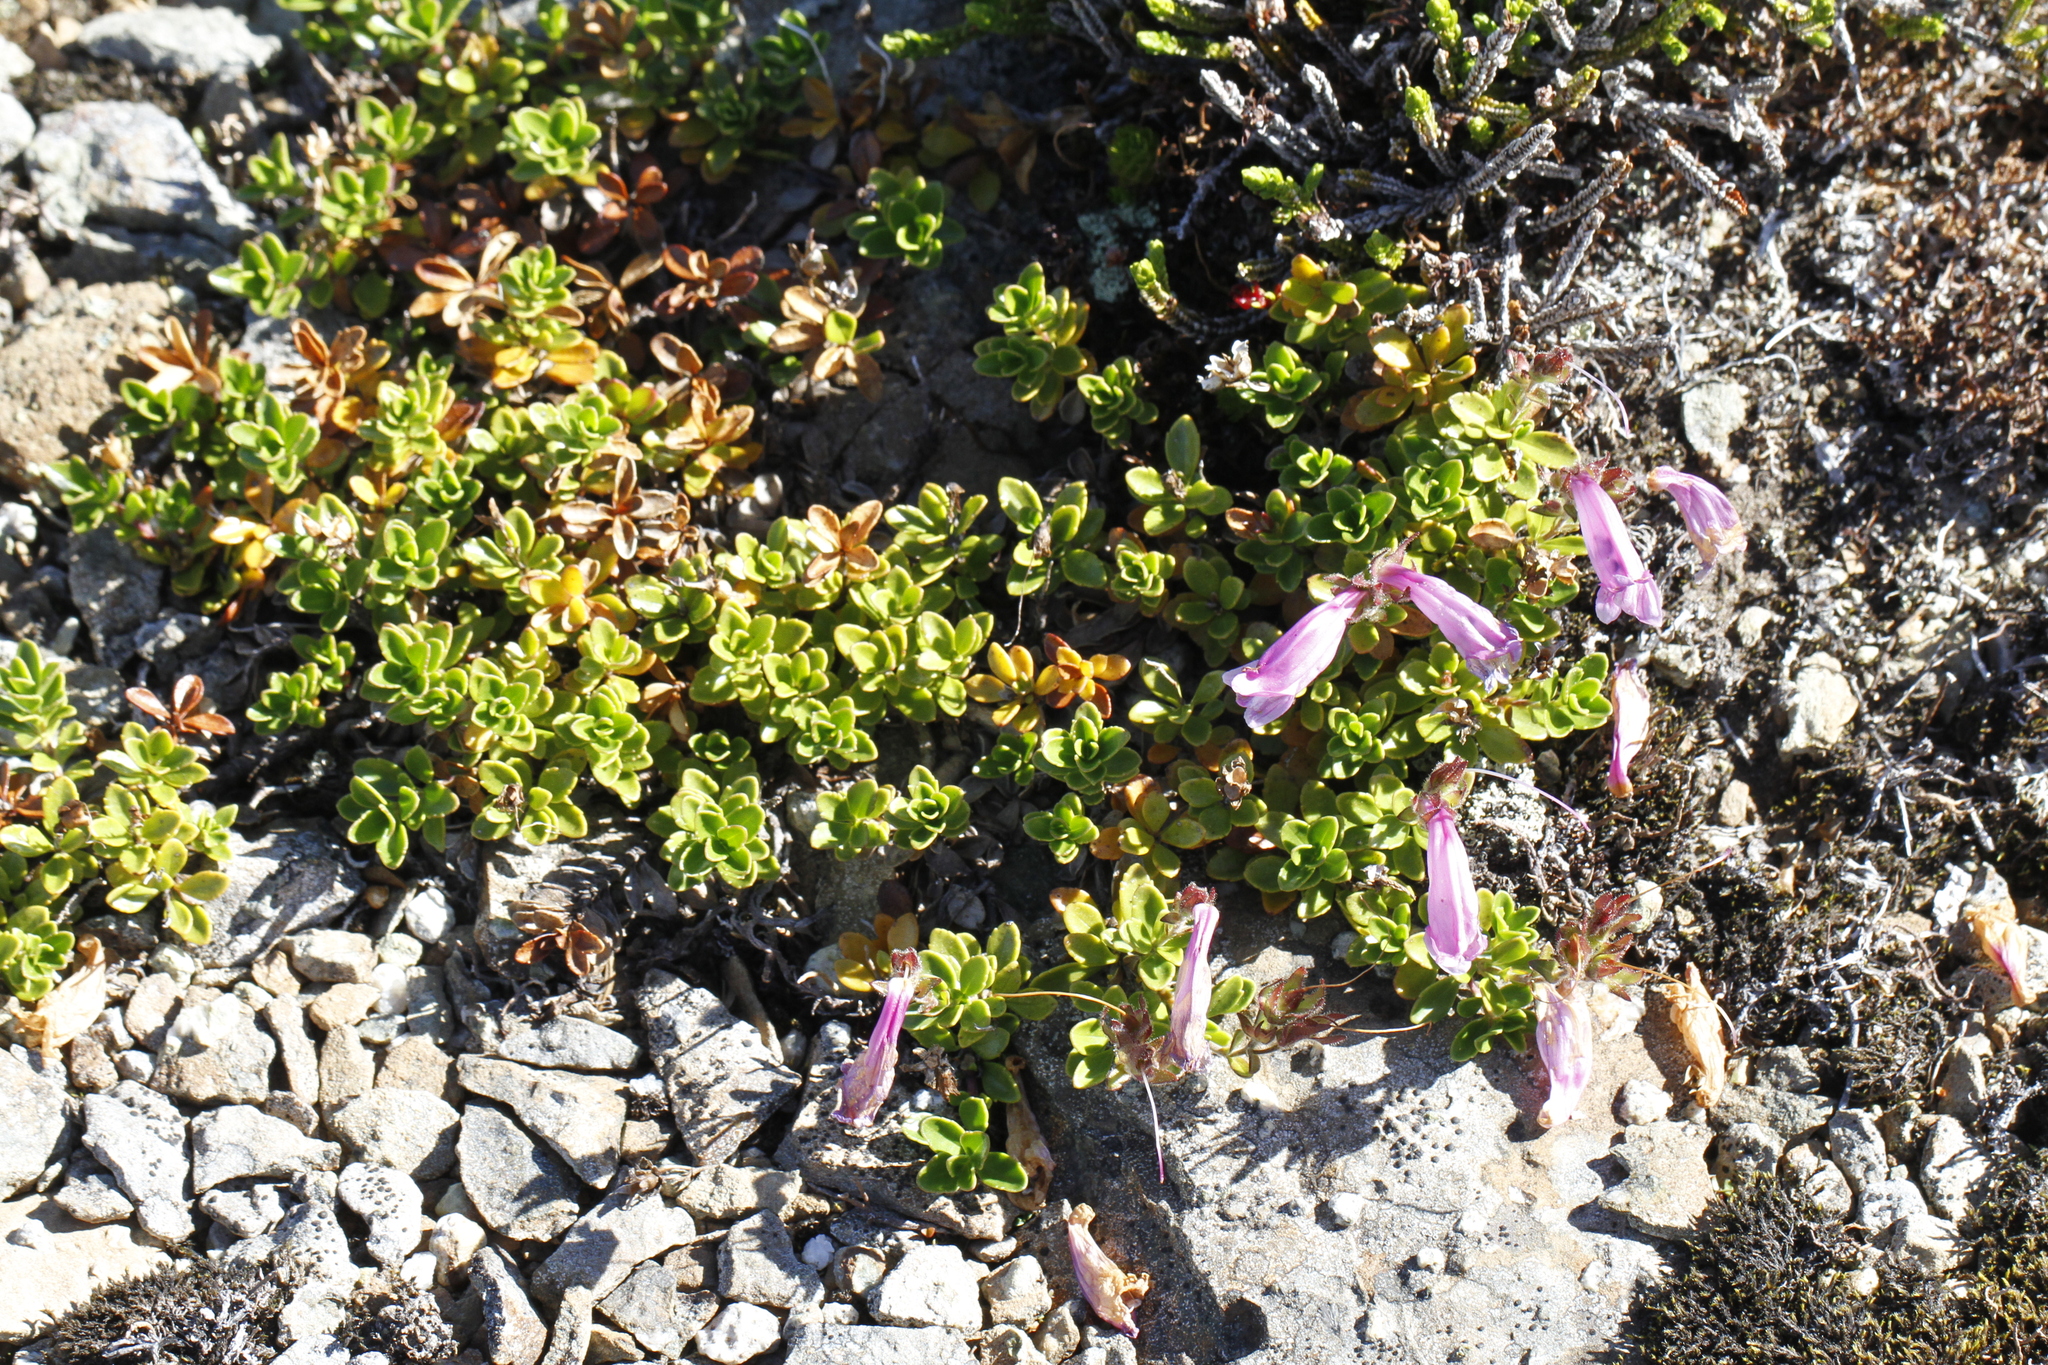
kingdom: Plantae
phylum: Tracheophyta
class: Magnoliopsida
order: Lamiales
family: Plantaginaceae
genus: Penstemon
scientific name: Penstemon davidsonii
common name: Davidson's penstemon
